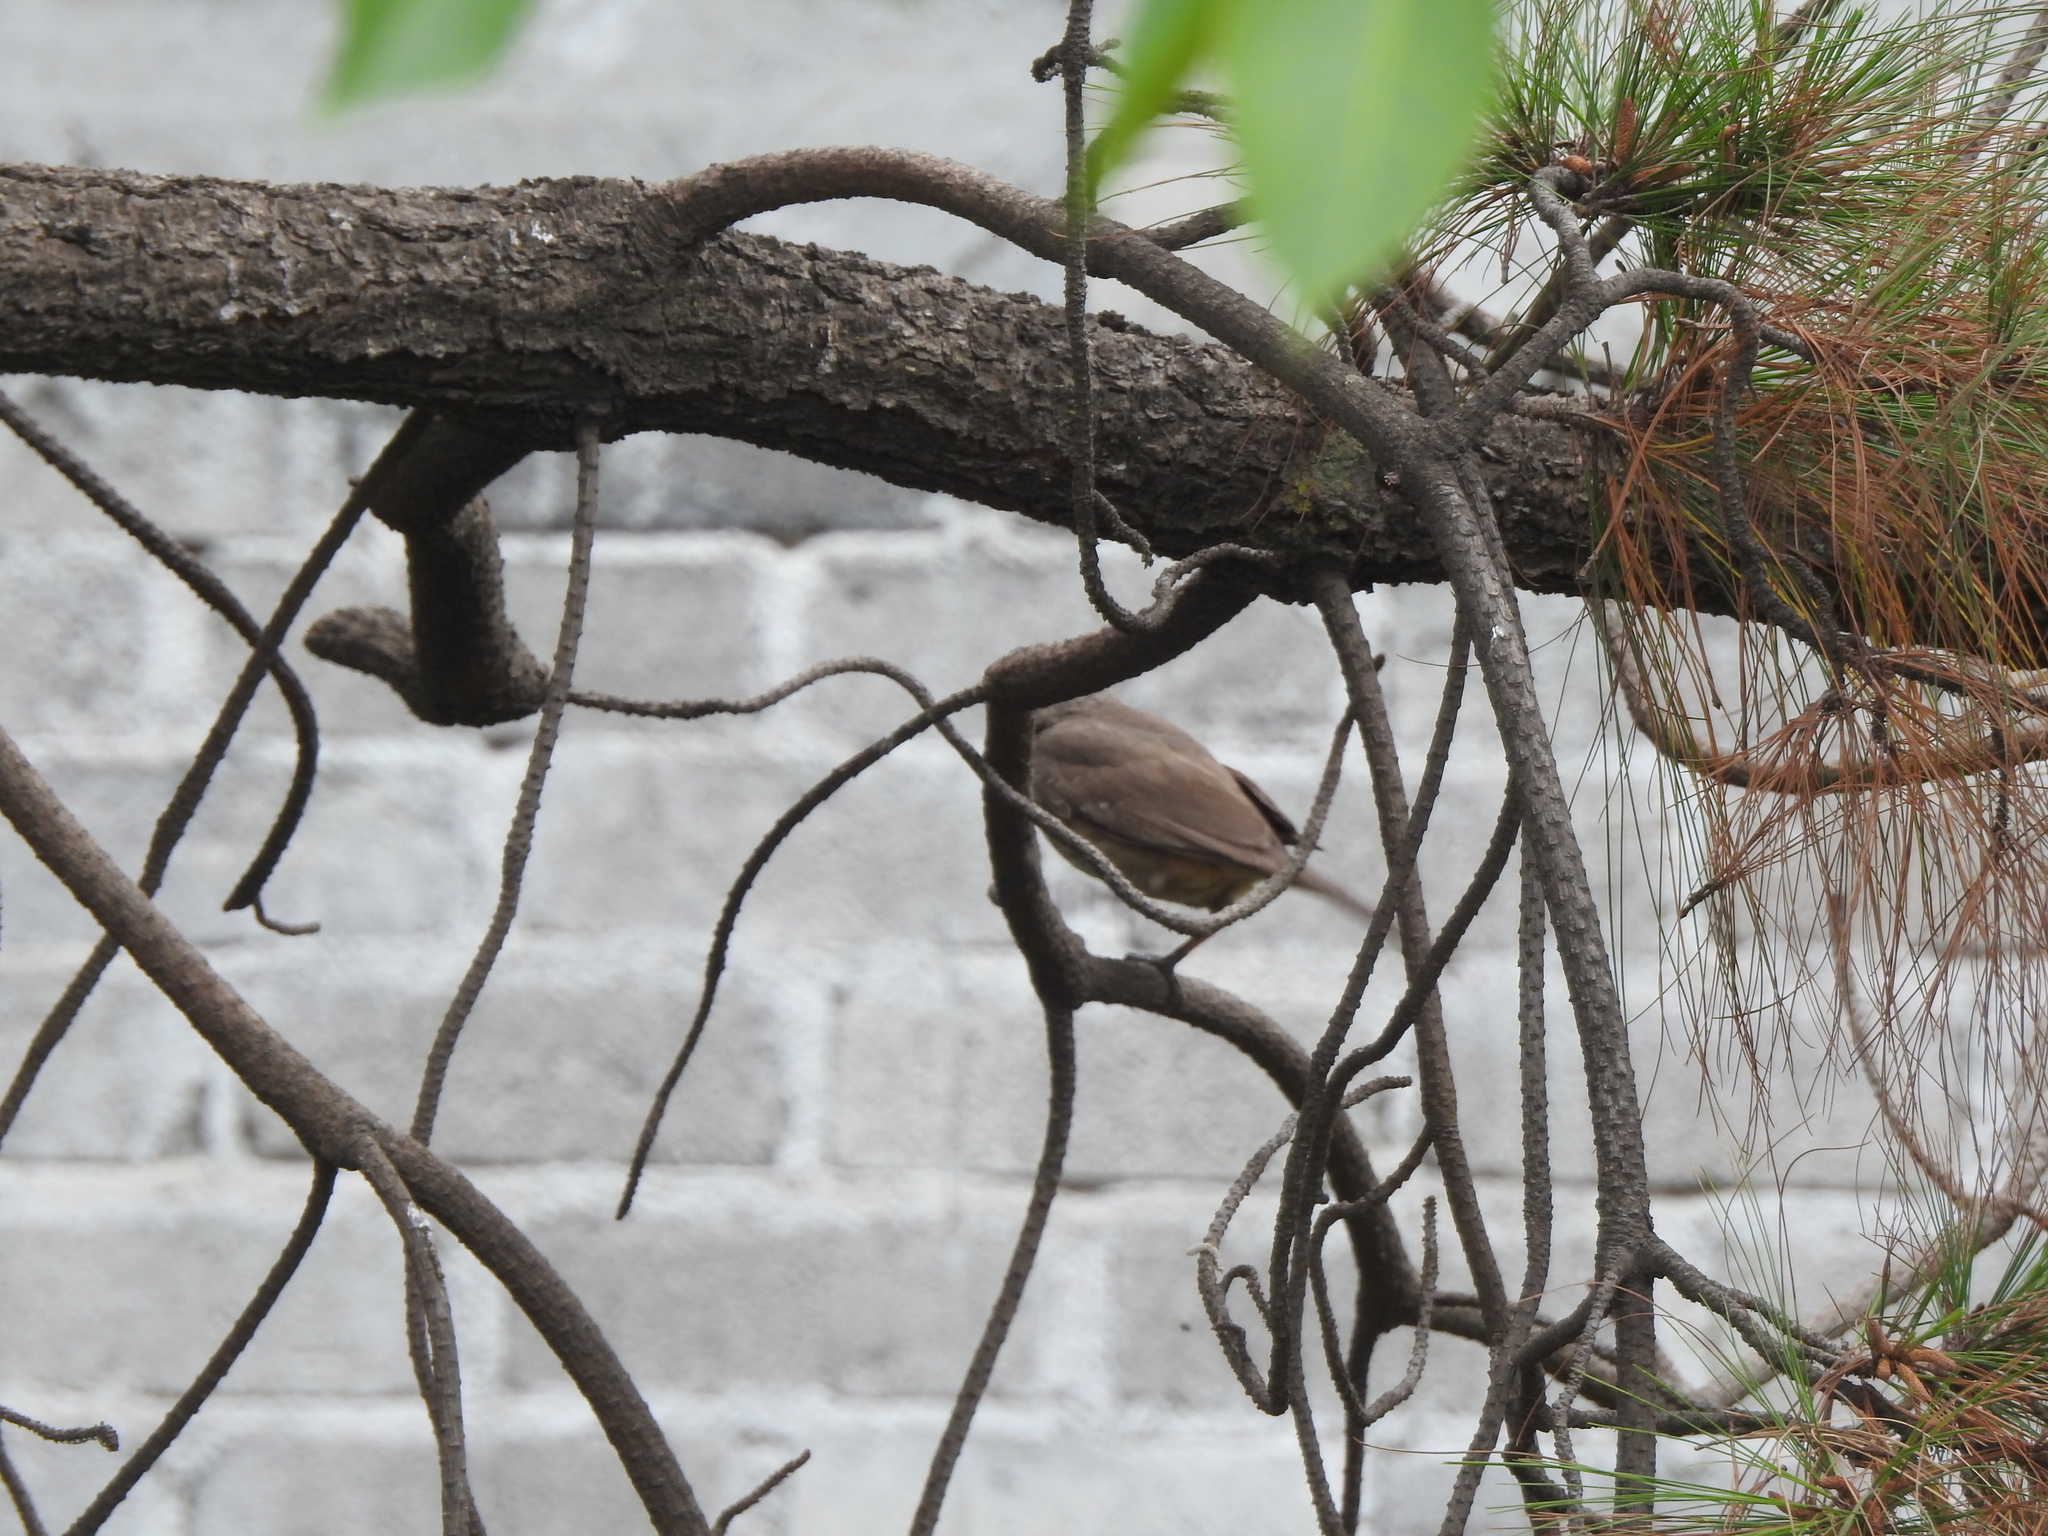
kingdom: Animalia
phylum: Chordata
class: Aves
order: Passeriformes
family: Mimidae
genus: Toxostoma
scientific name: Toxostoma curvirostre
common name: Curve-billed thrasher
